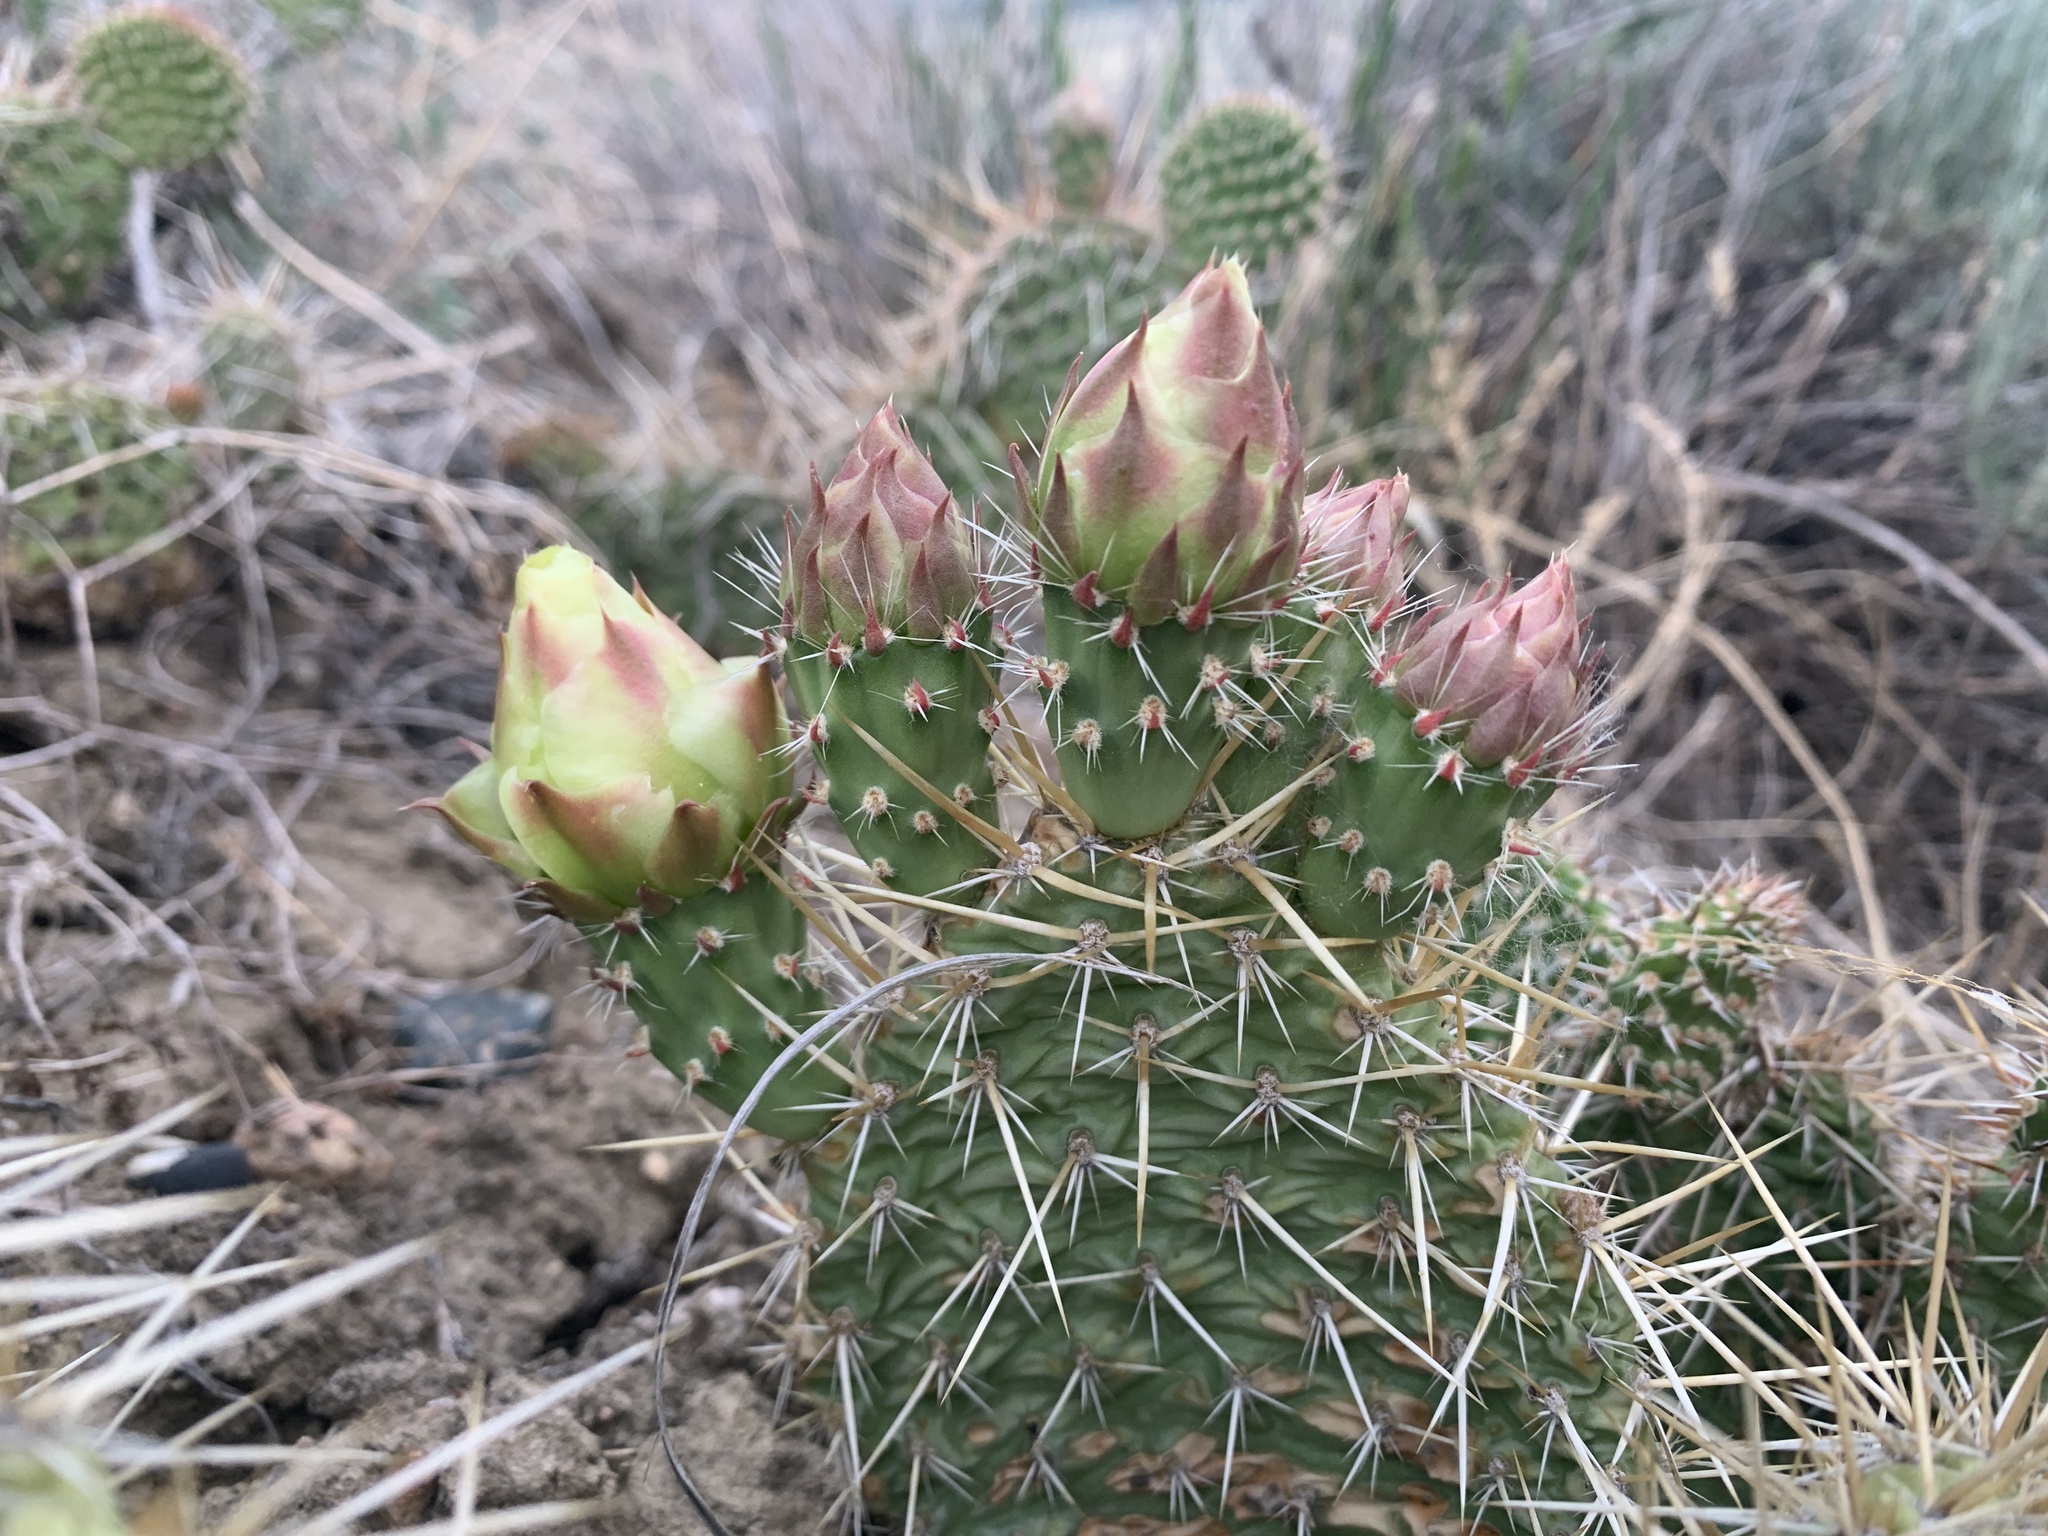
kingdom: Plantae
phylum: Tracheophyta
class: Magnoliopsida
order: Caryophyllales
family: Cactaceae
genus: Opuntia
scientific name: Opuntia polyacantha
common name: Plains prickly-pear
